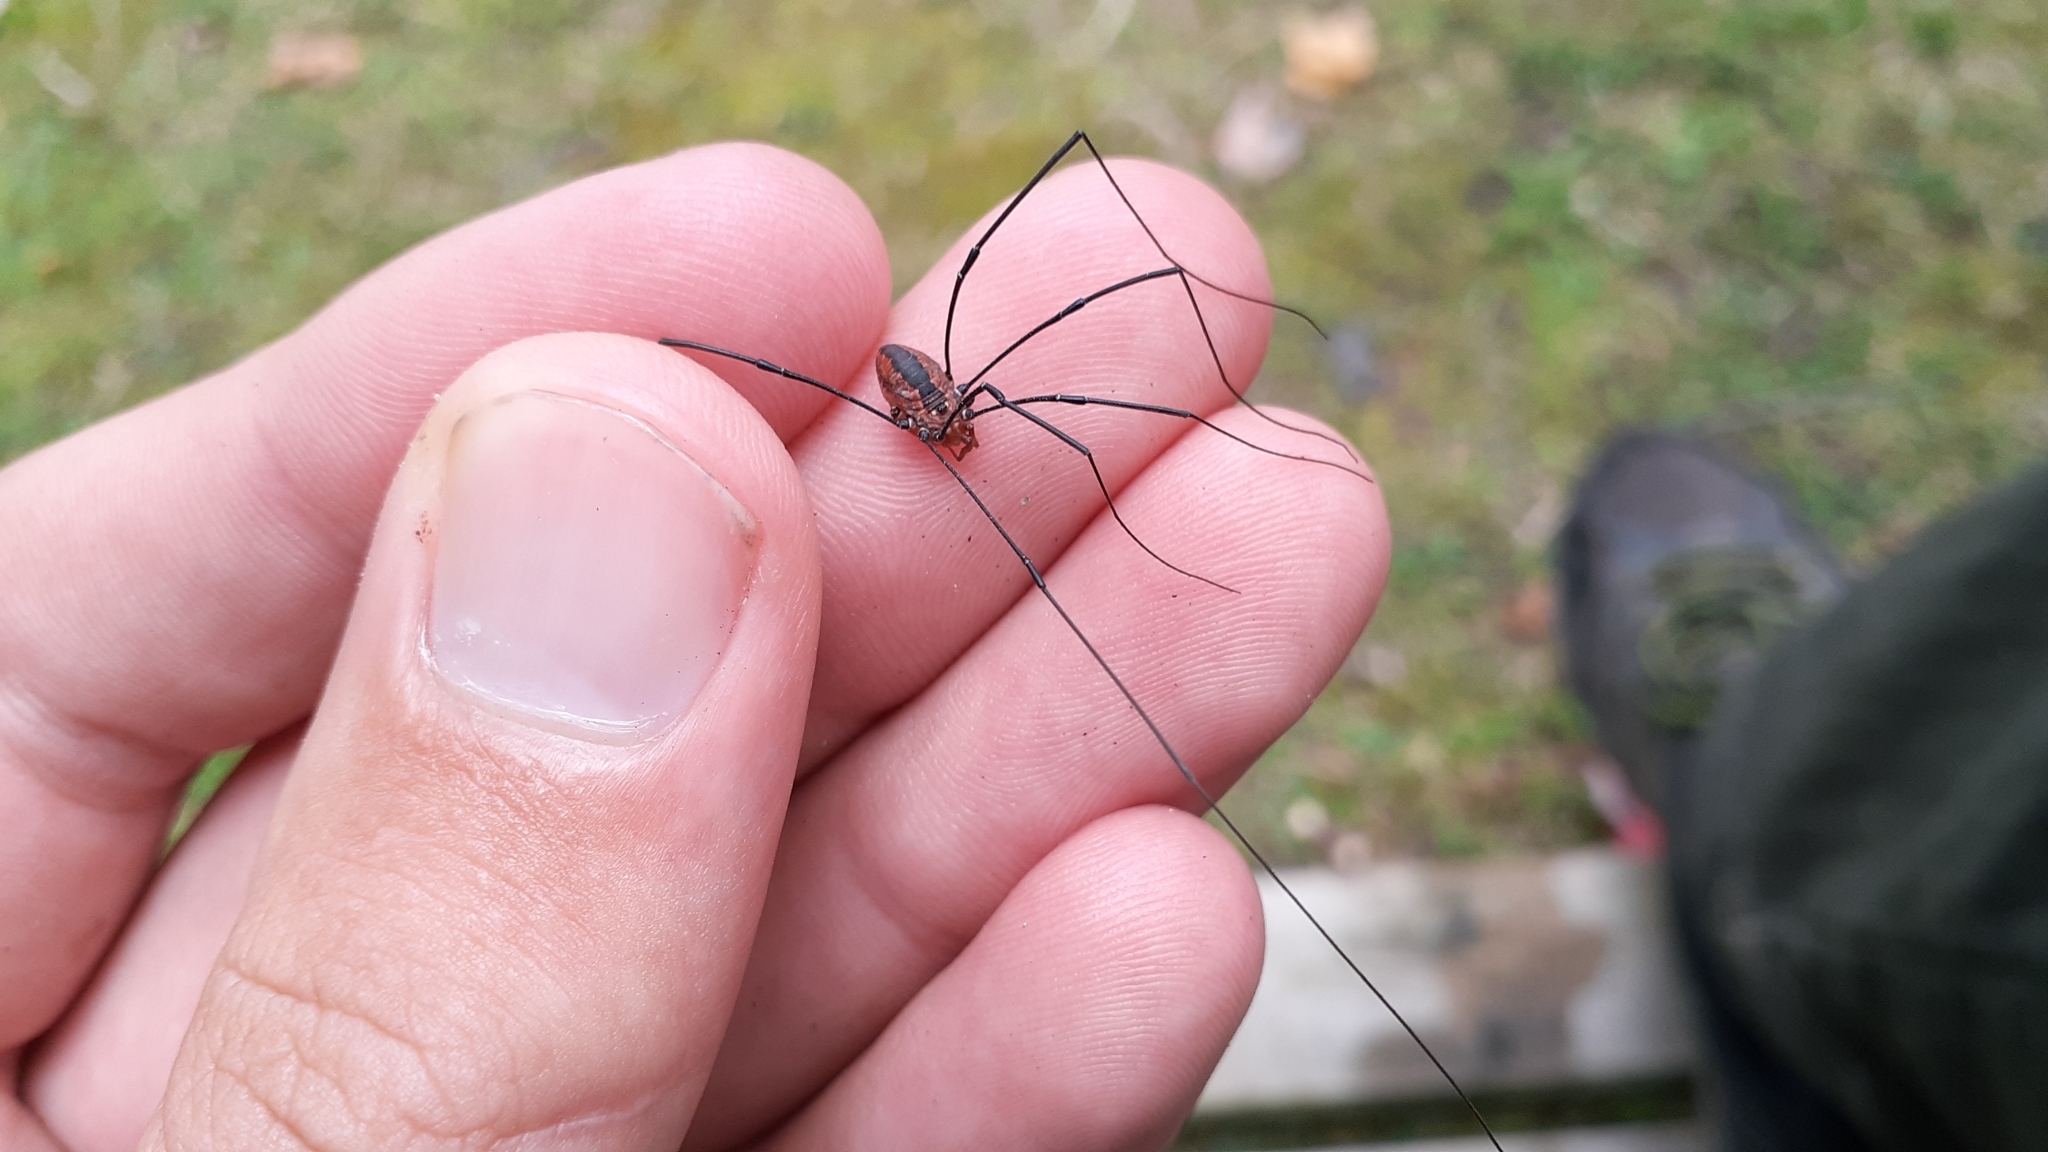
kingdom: Animalia
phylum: Arthropoda
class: Arachnida
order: Opiliones
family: Sclerosomatidae
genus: Leiobunum
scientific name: Leiobunum vittatum
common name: Eastern harvestman
